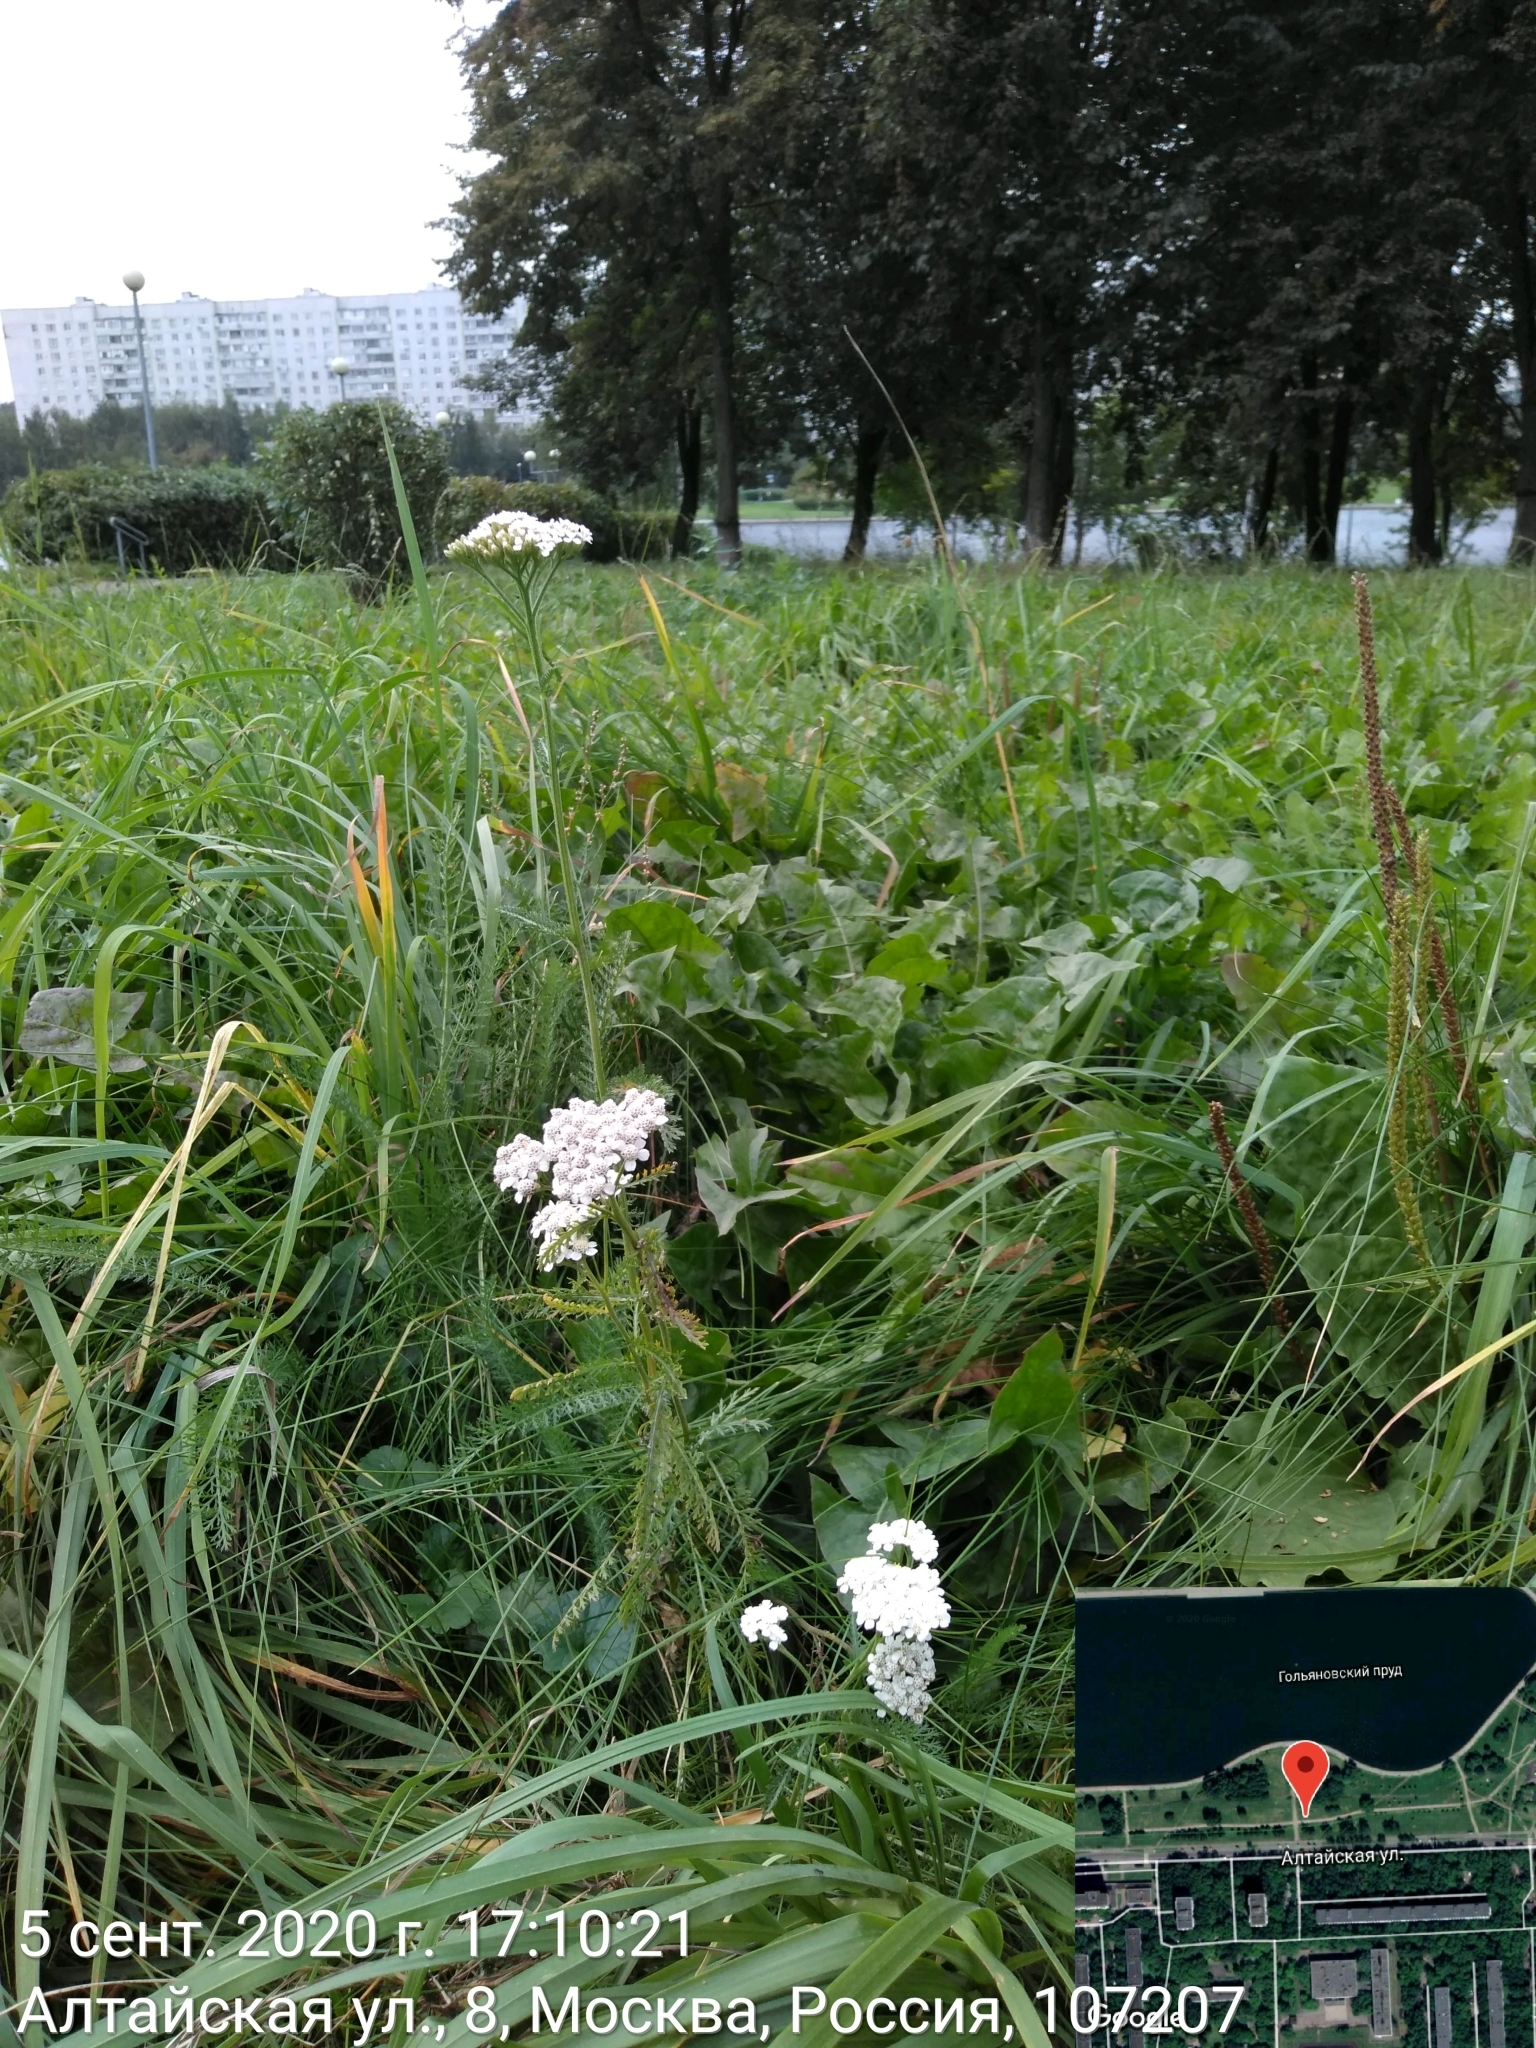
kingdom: Plantae
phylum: Tracheophyta
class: Magnoliopsida
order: Asterales
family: Asteraceae
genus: Achillea
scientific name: Achillea millefolium
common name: Yarrow
